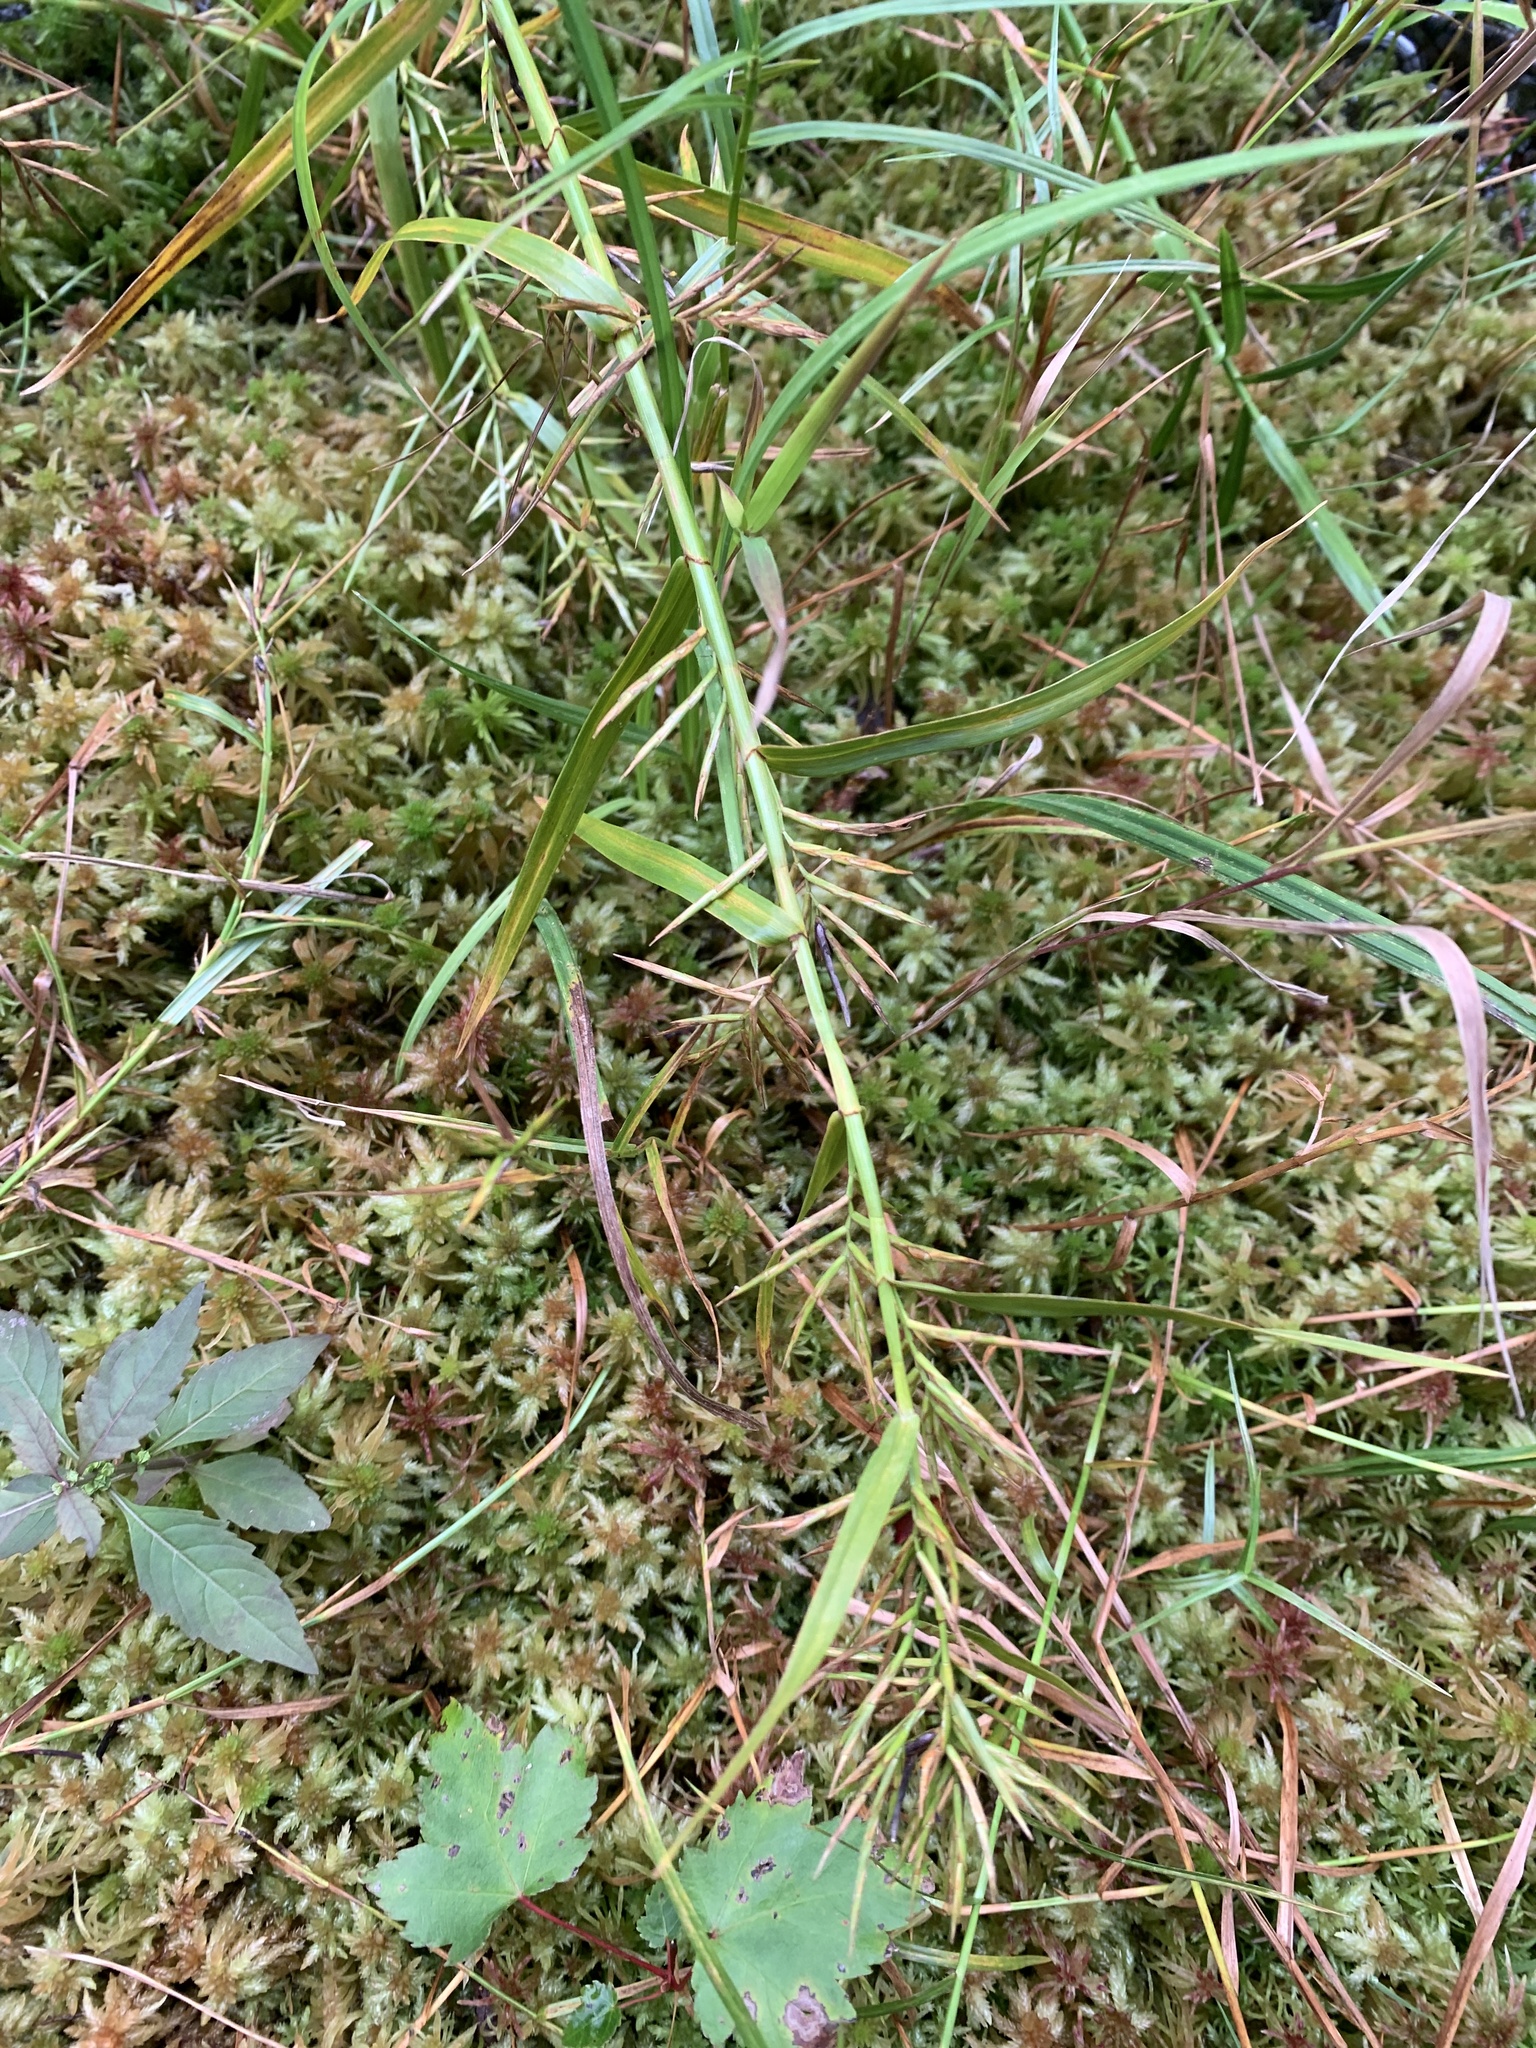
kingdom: Plantae
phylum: Tracheophyta
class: Liliopsida
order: Poales
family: Cyperaceae
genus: Dulichium
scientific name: Dulichium arundinaceum
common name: Three-way sedge
